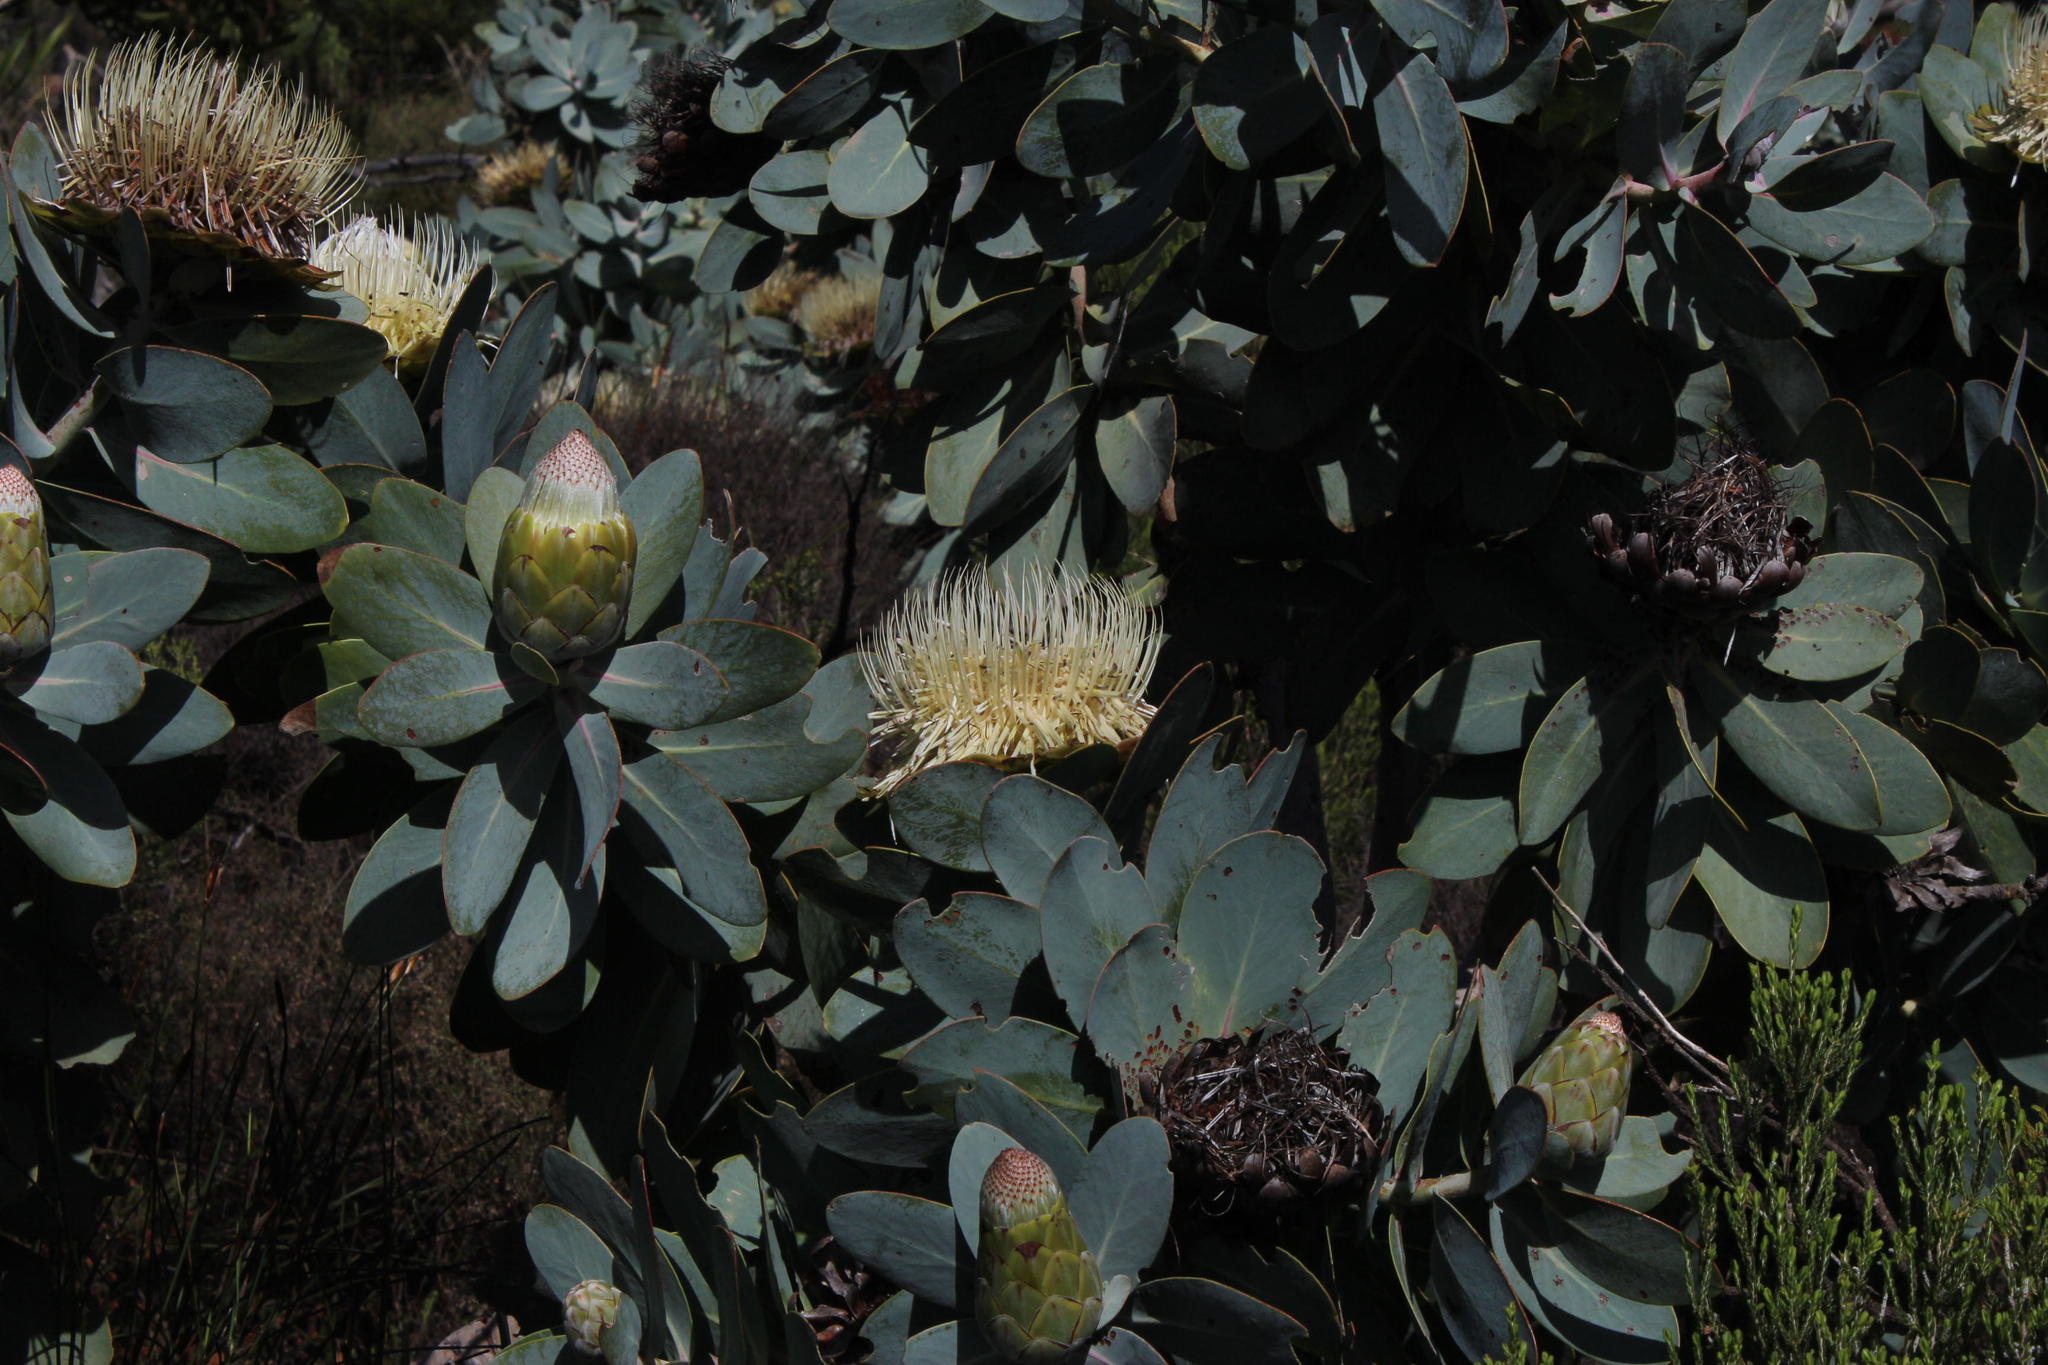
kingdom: Plantae
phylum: Tracheophyta
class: Magnoliopsida
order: Proteales
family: Proteaceae
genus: Protea
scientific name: Protea nitida
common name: Tree protea
